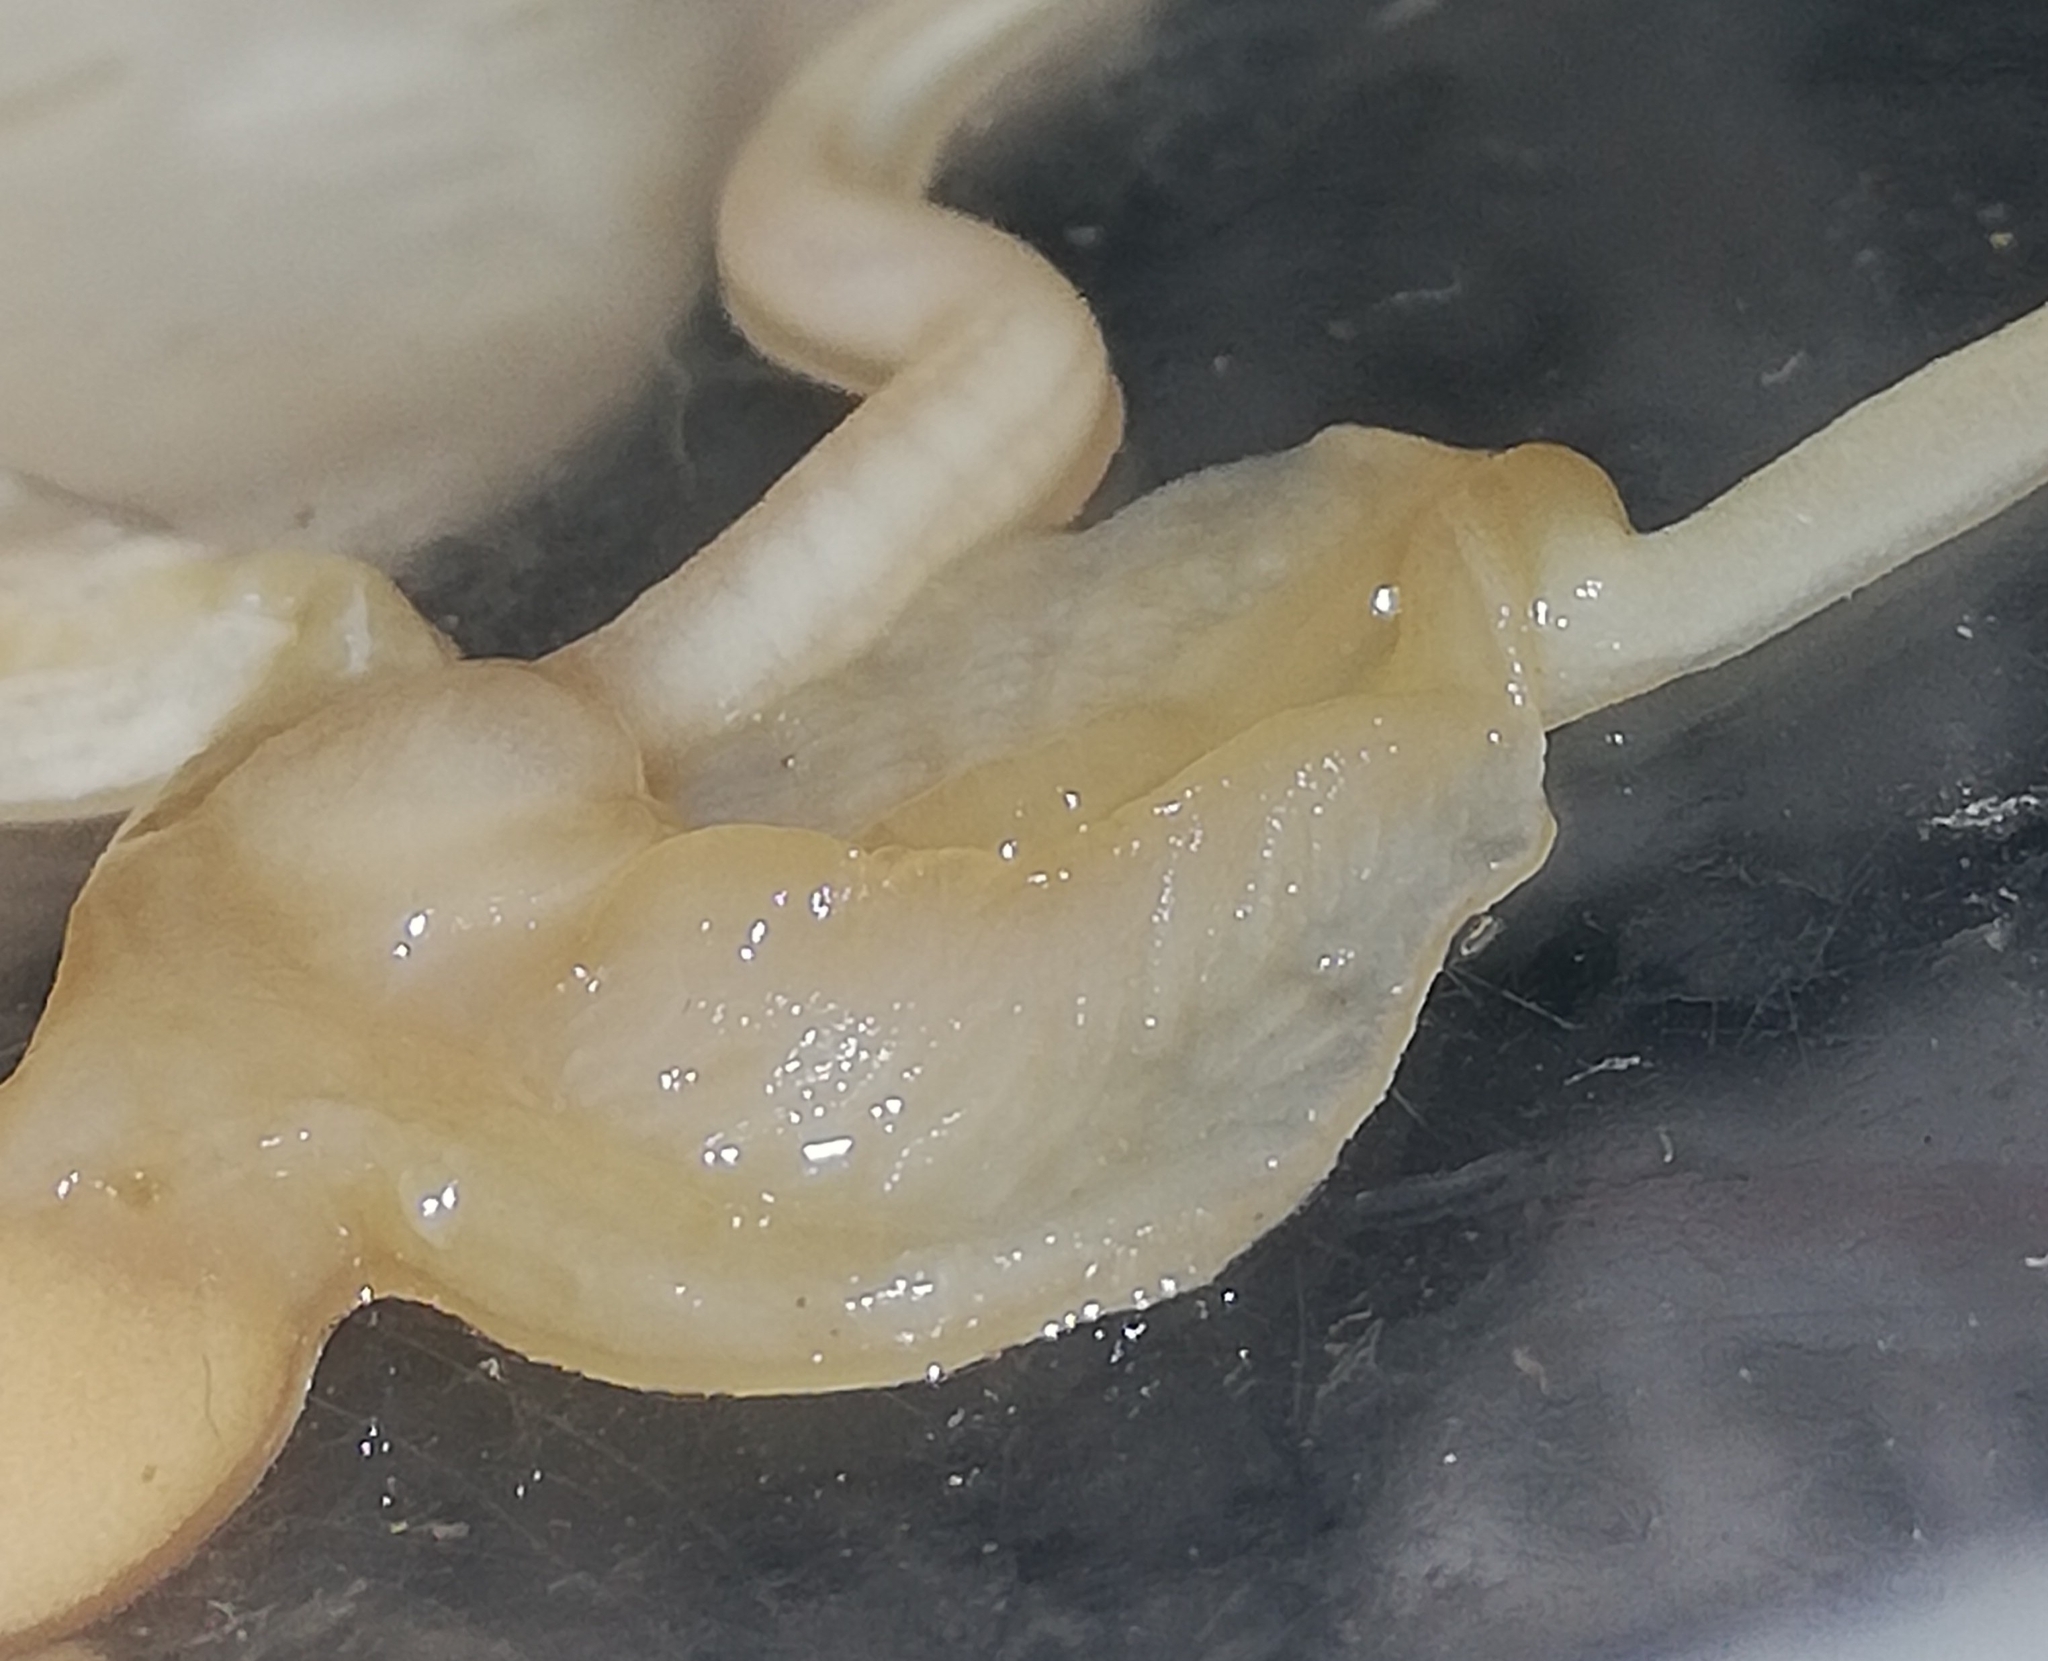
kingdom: Animalia
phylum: Mollusca
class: Gastropoda
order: Stylommatophora
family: Arionidae
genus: Arion
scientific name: Arion vulgaris
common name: Lusitanian slug
